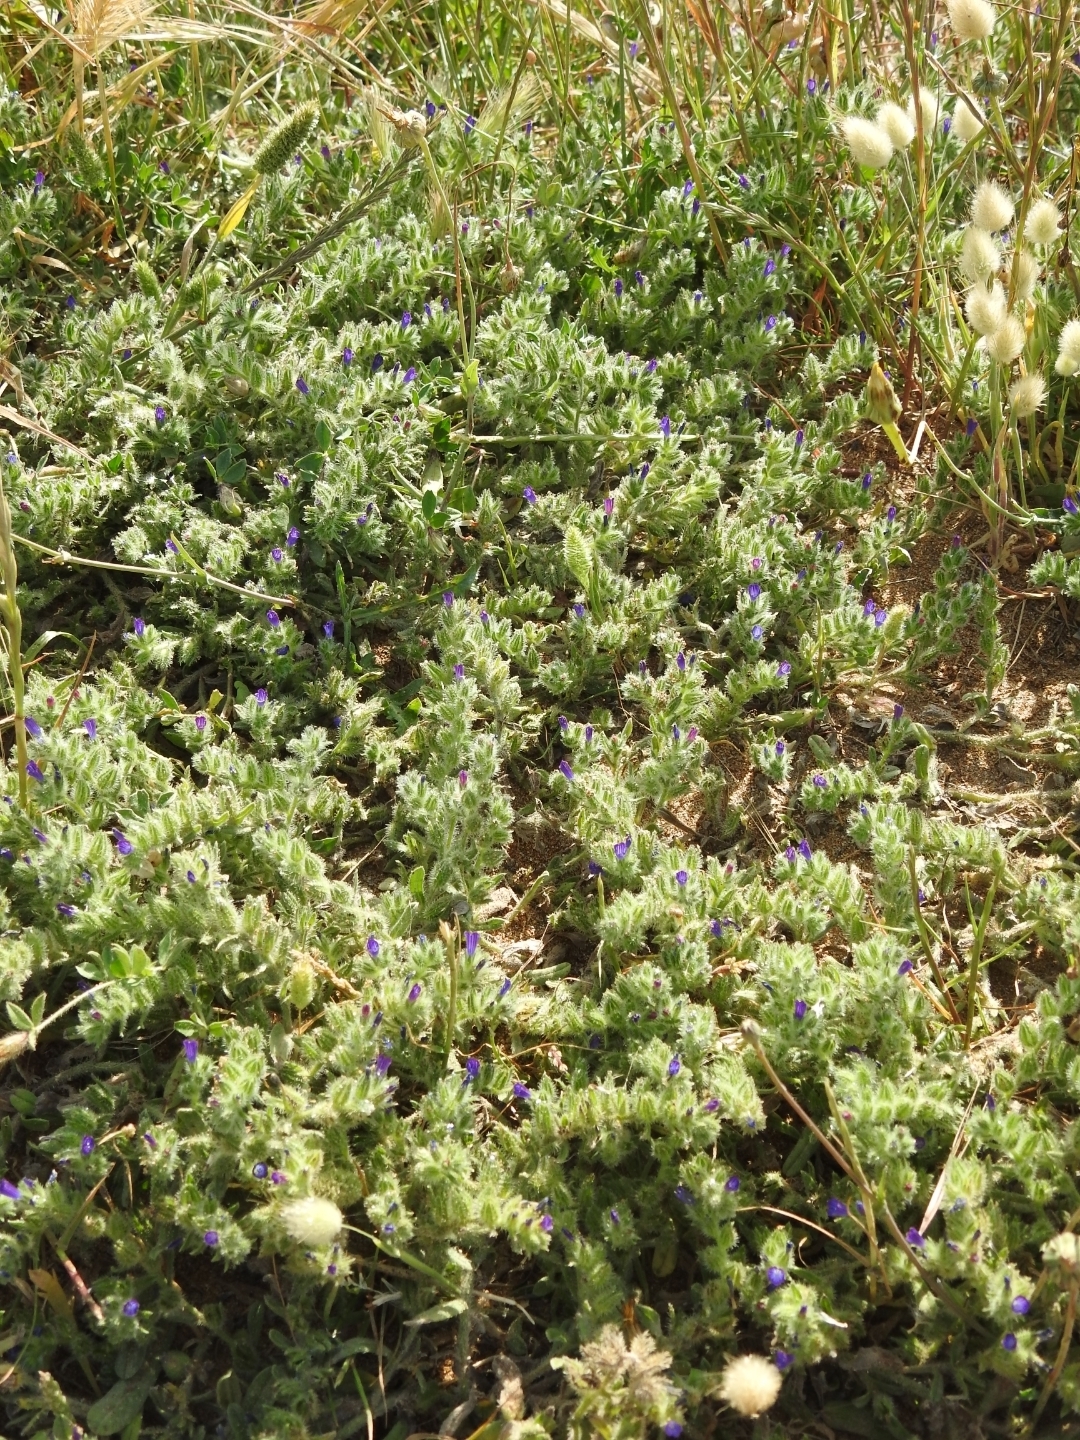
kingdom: Plantae
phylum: Tracheophyta
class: Magnoliopsida
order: Boraginales
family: Boraginaceae
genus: Echium
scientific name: Echium arenarium
